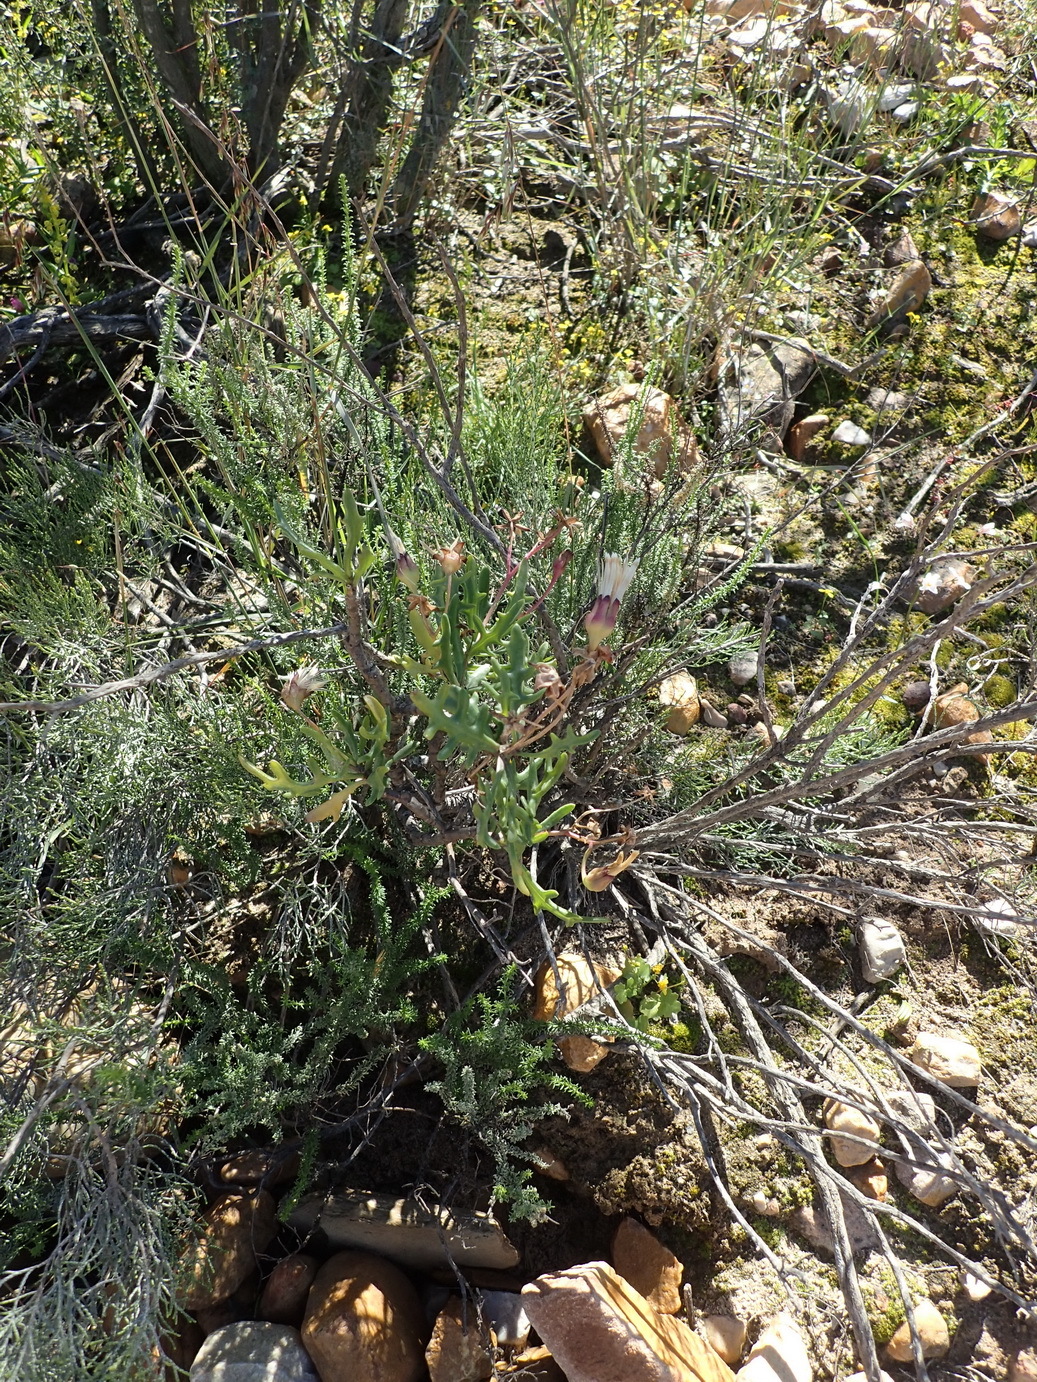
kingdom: Plantae
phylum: Tracheophyta
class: Magnoliopsida
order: Asterales
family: Asteraceae
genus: Othonna
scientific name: Othonna retrofracta
